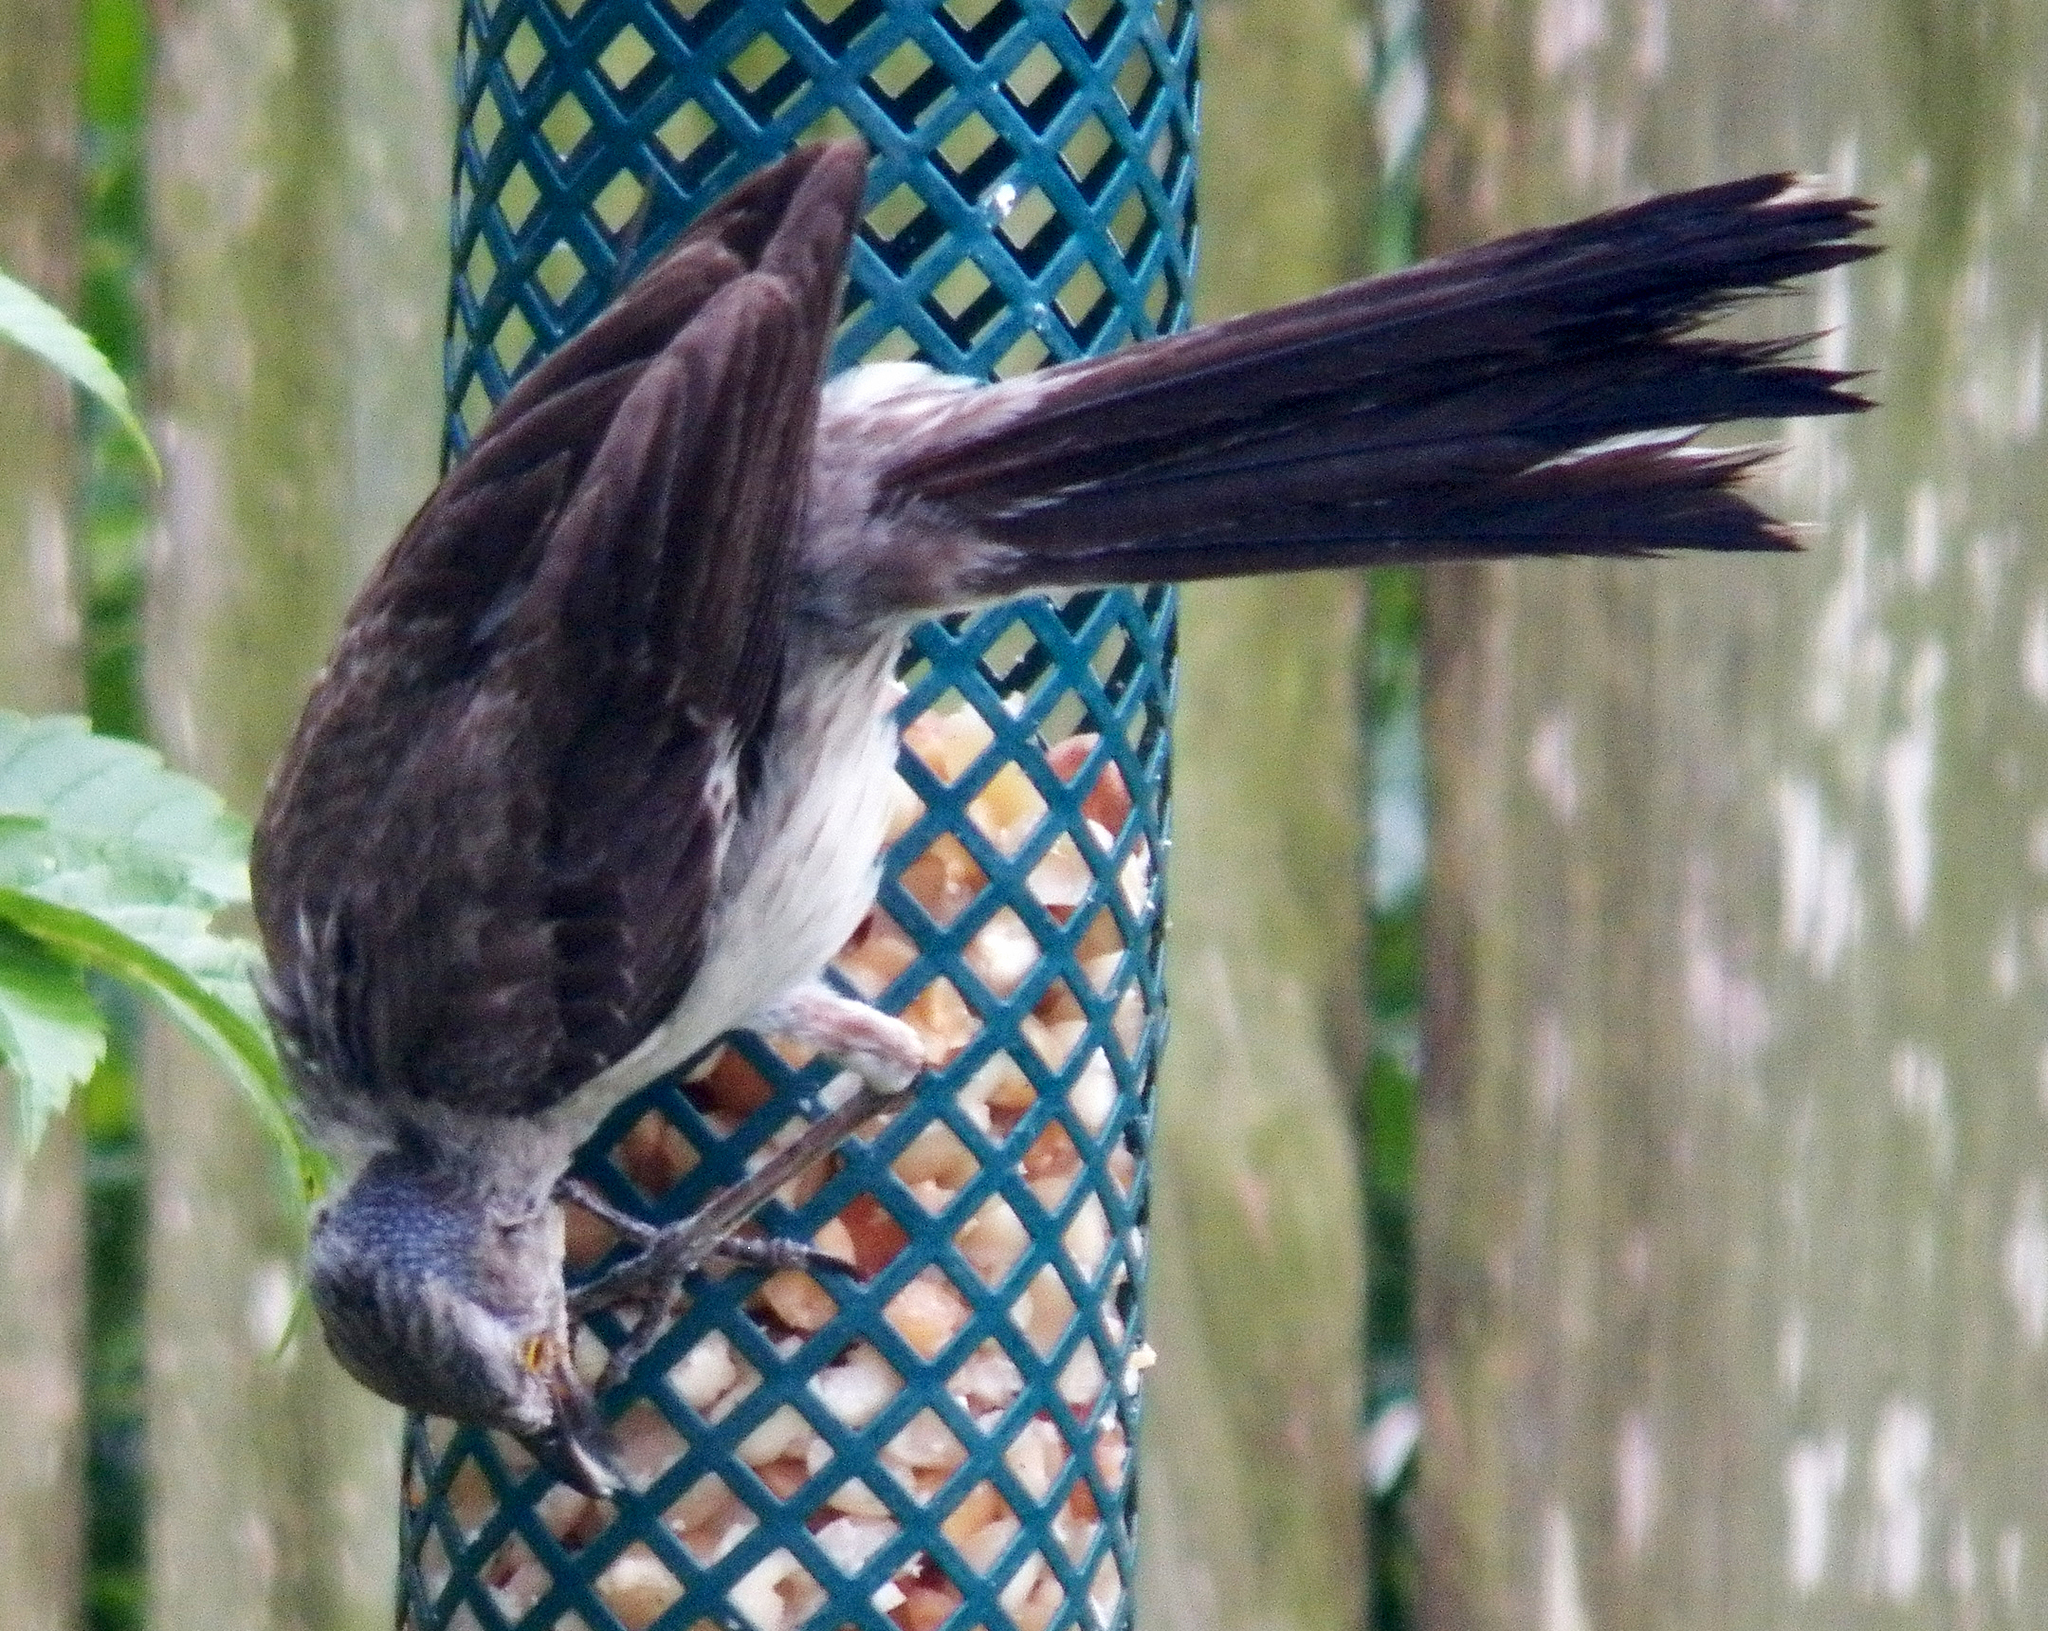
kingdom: Animalia
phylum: Chordata
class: Aves
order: Passeriformes
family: Mimidae
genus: Mimus
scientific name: Mimus polyglottos
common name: Northern mockingbird
